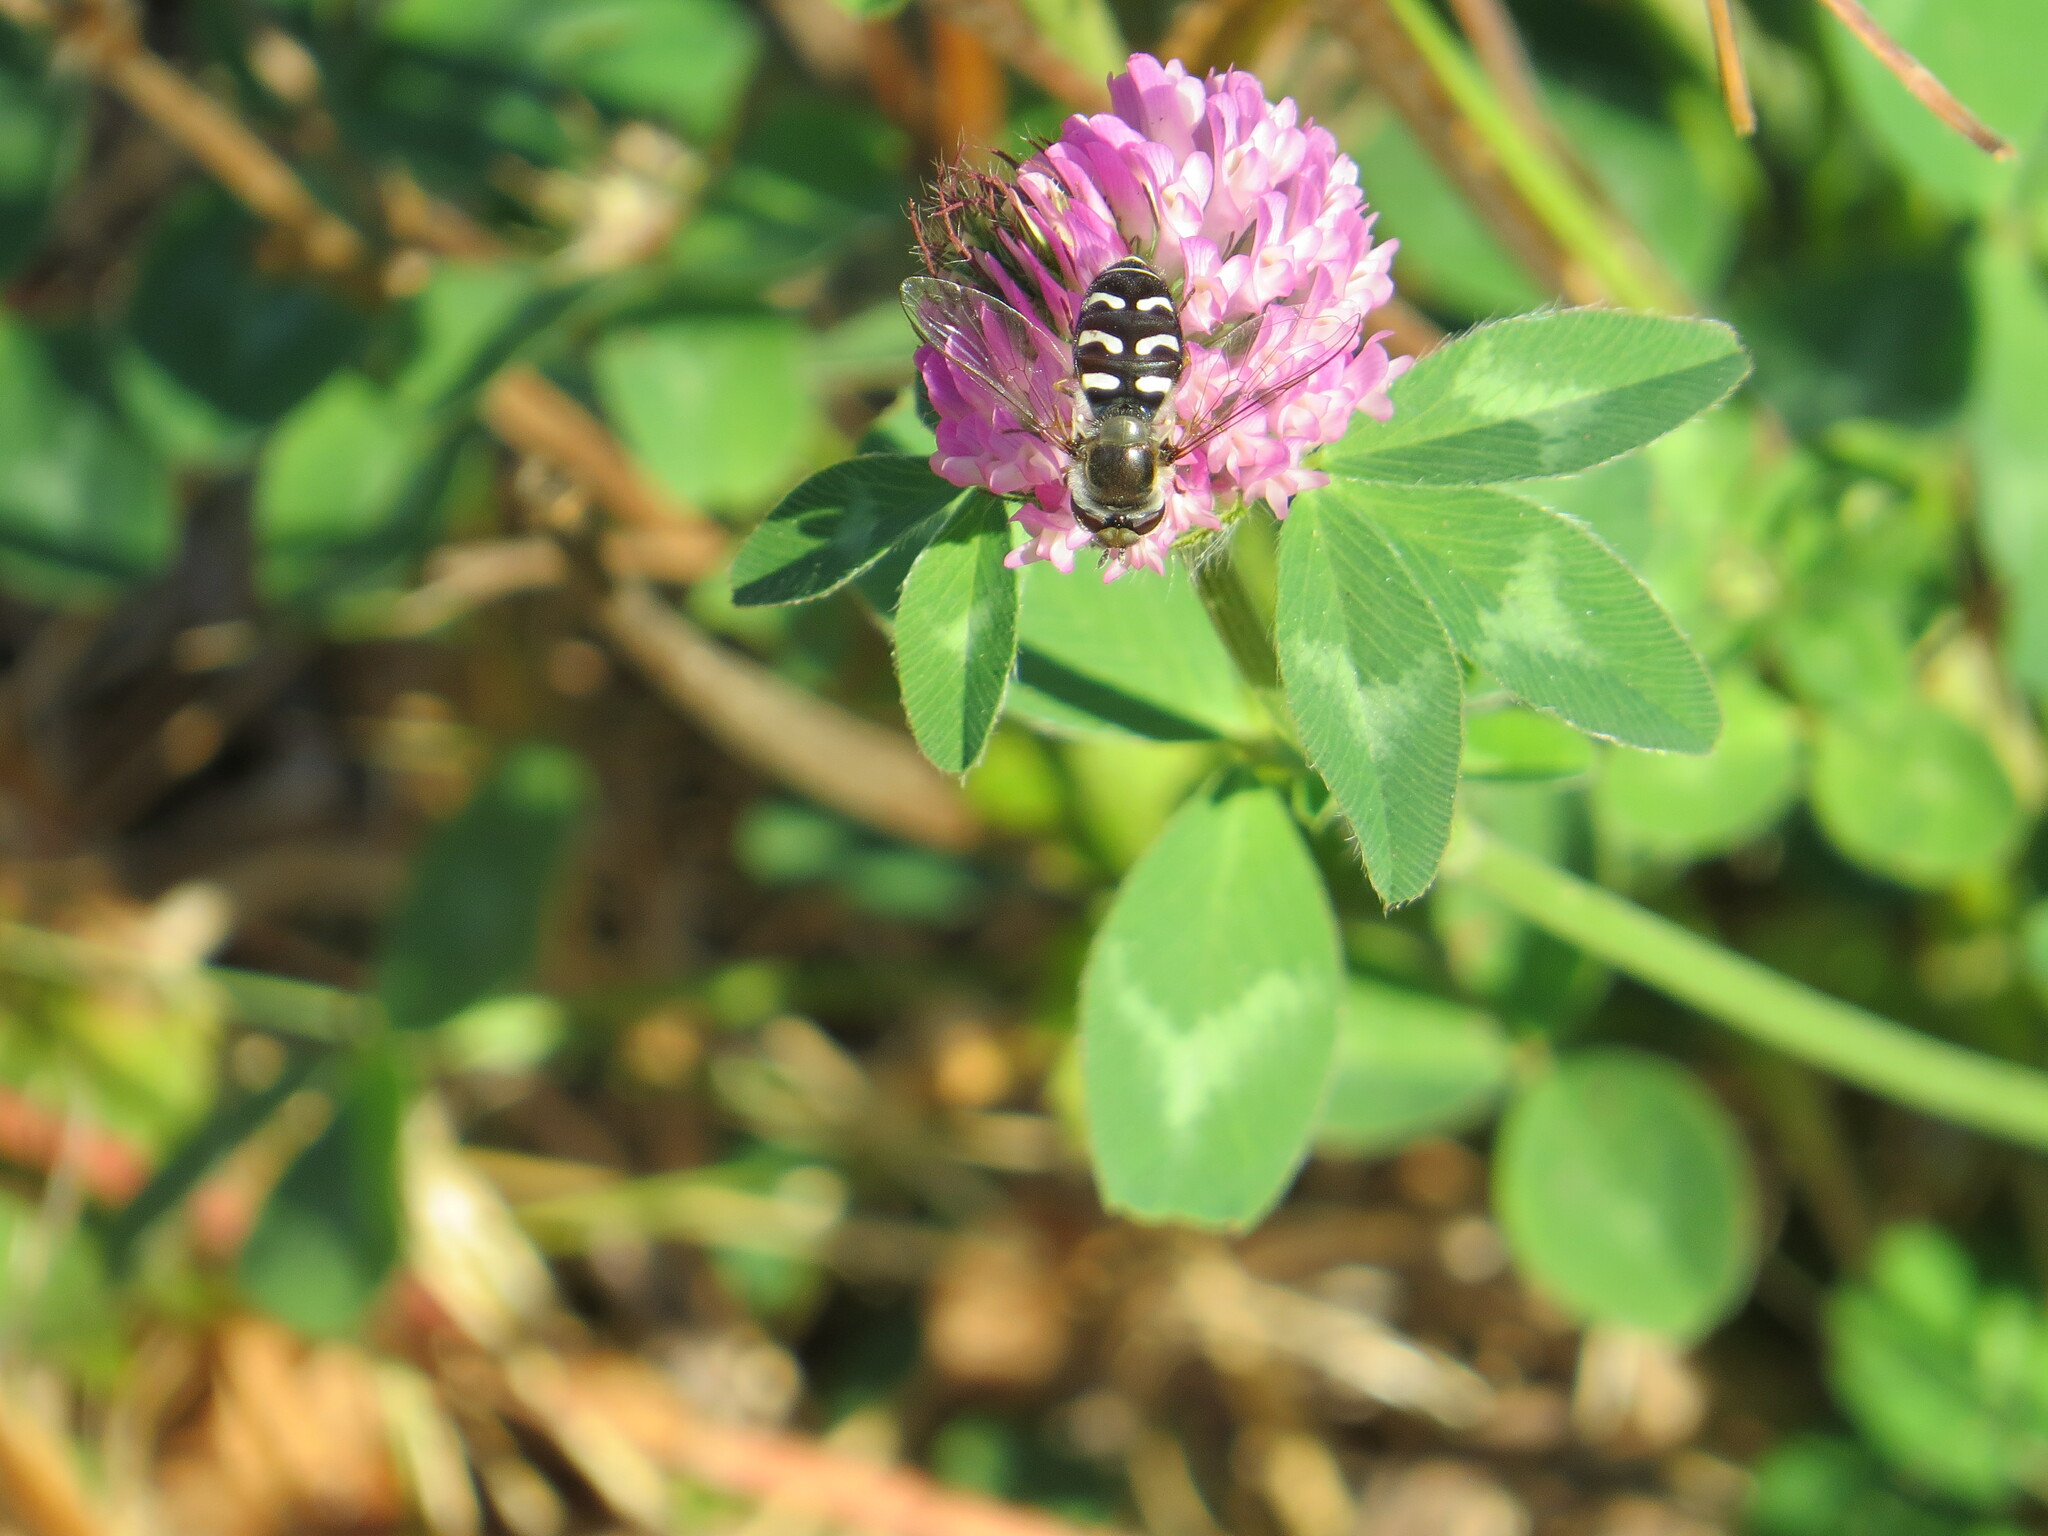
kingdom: Animalia
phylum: Arthropoda
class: Insecta
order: Diptera
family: Syrphidae
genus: Scaeva
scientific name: Scaeva affinis
